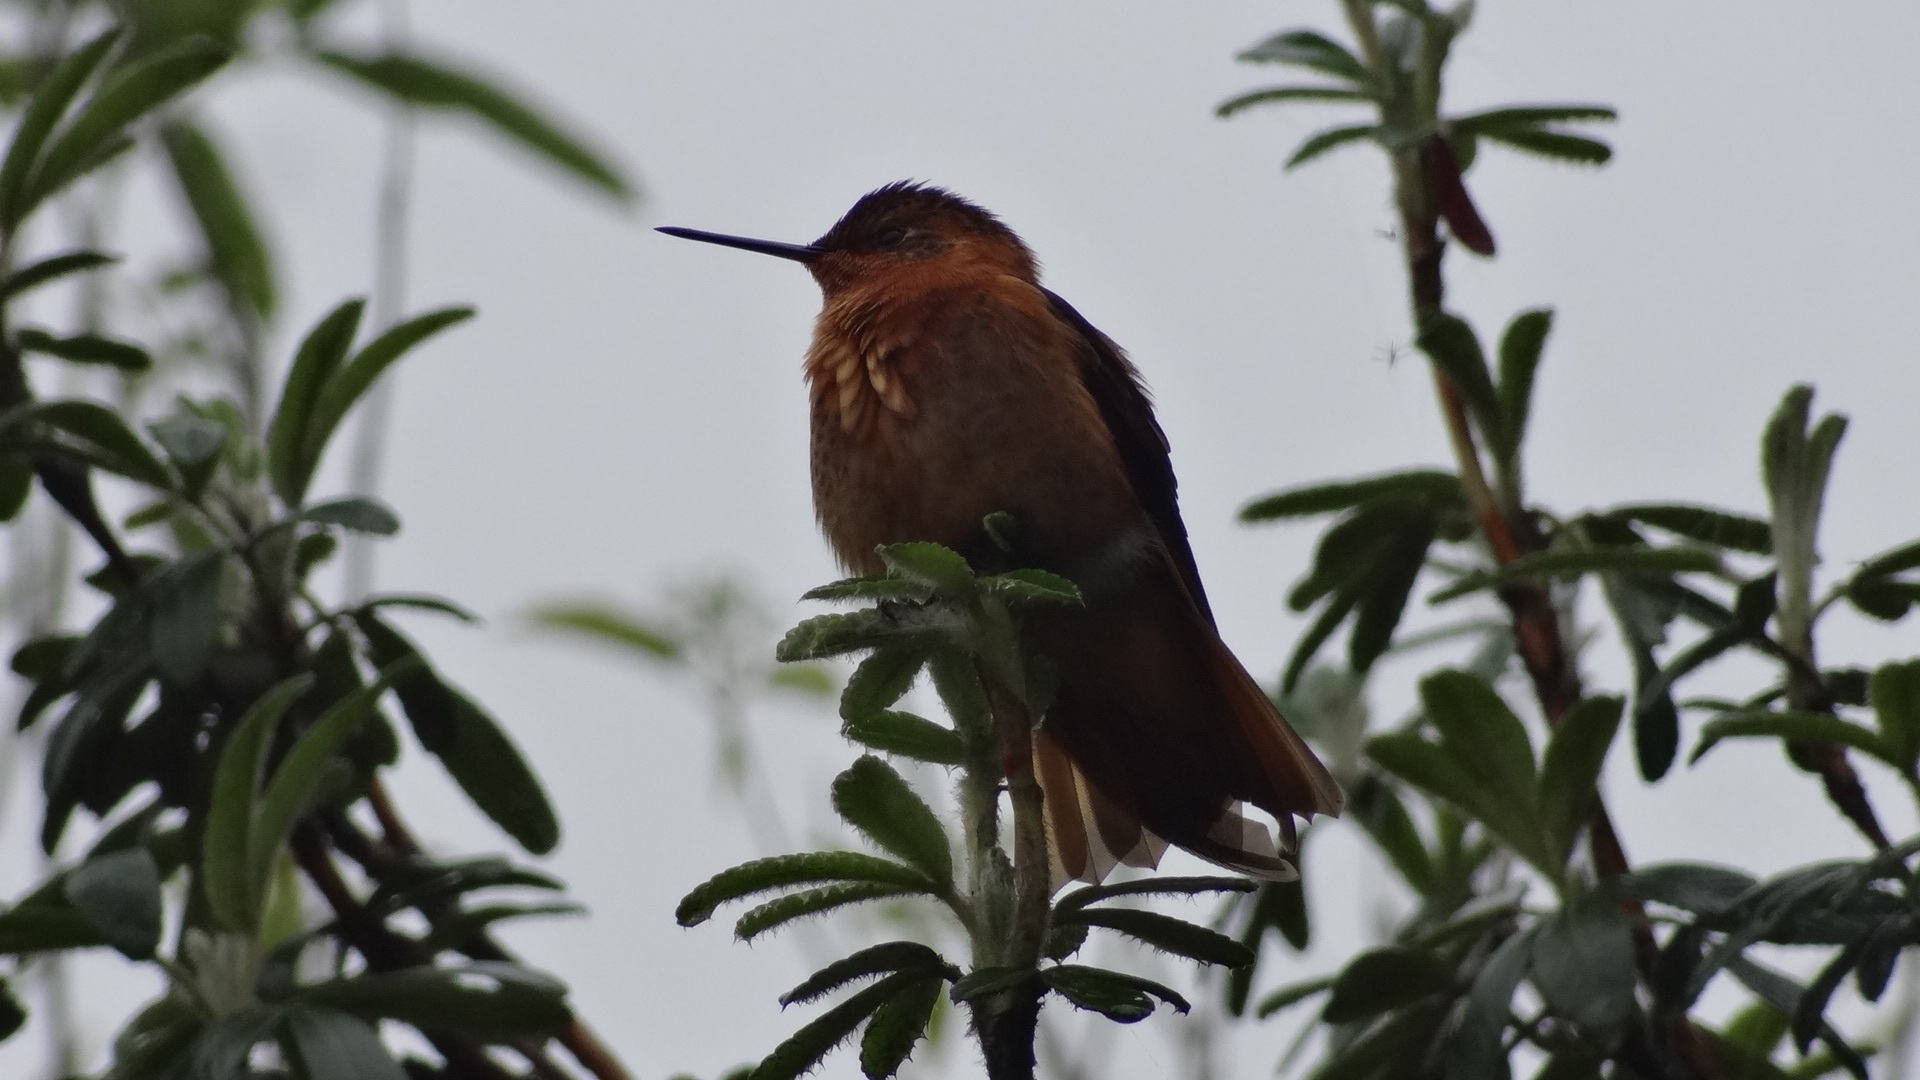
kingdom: Animalia
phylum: Chordata
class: Aves
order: Apodiformes
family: Trochilidae
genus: Aglaeactis
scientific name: Aglaeactis cupripennis
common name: Shining sunbeam
